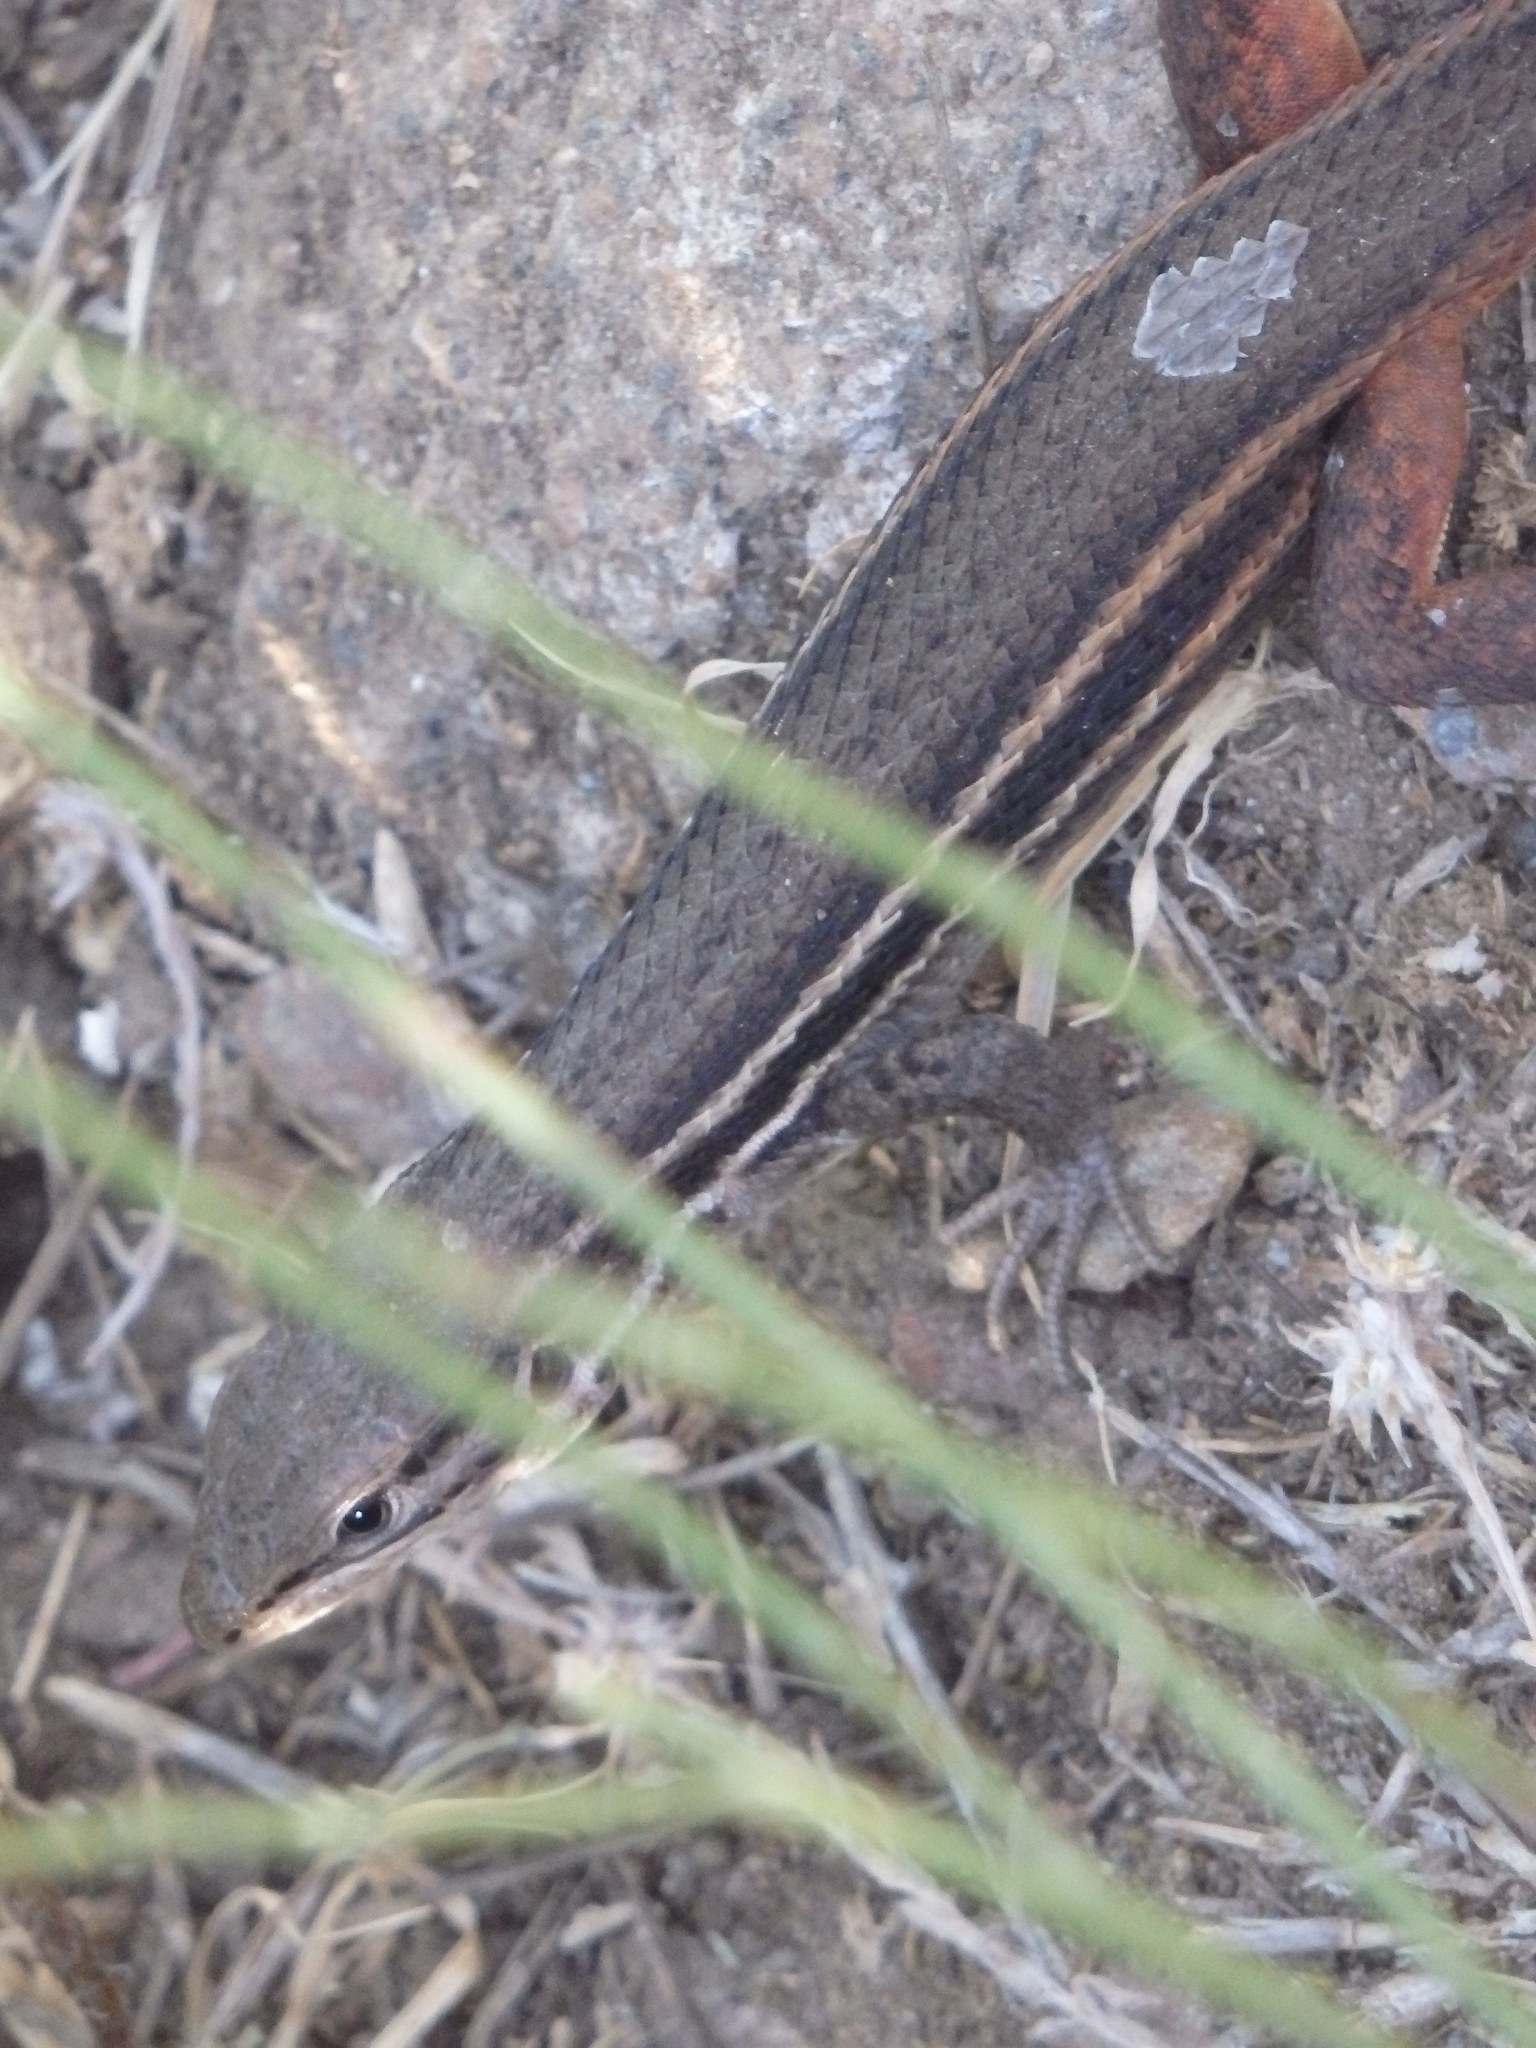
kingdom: Animalia
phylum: Chordata
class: Squamata
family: Lacertidae
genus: Psammodromus
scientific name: Psammodromus algirus
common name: Algerian psammodromus
